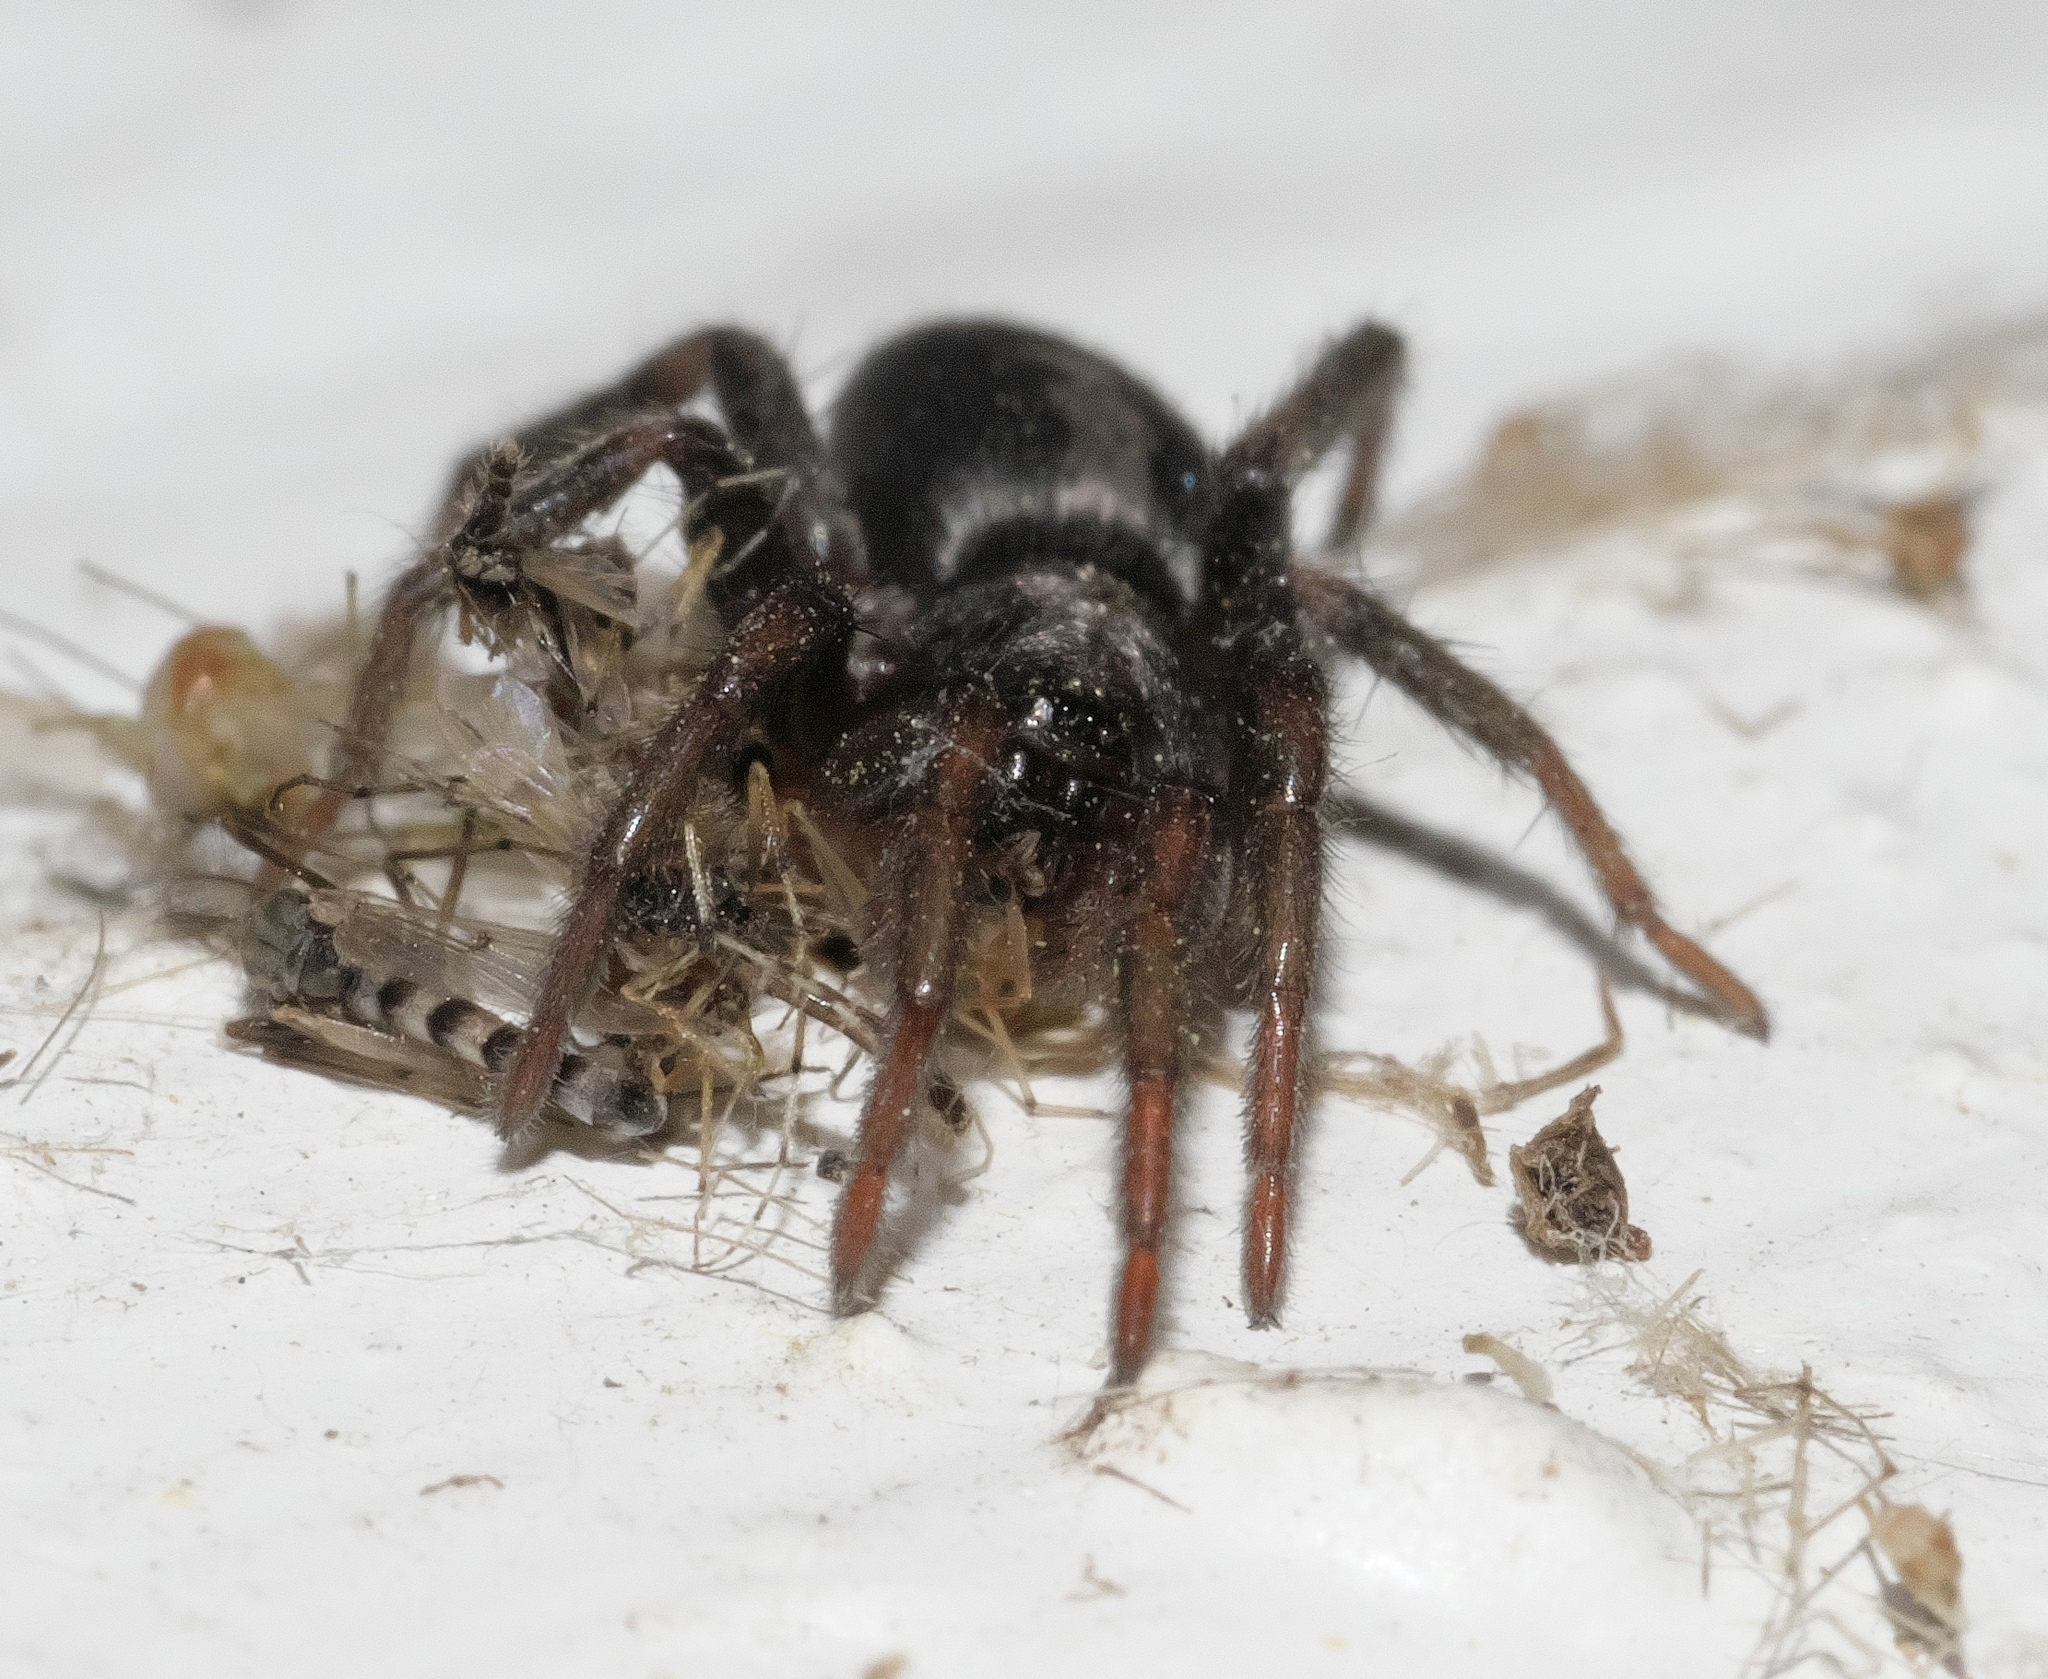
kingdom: Animalia
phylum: Arthropoda
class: Arachnida
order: Araneae
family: Gnaphosidae
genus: Herpyllus
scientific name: Herpyllus ecclesiasticus
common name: Eastern parson spider
